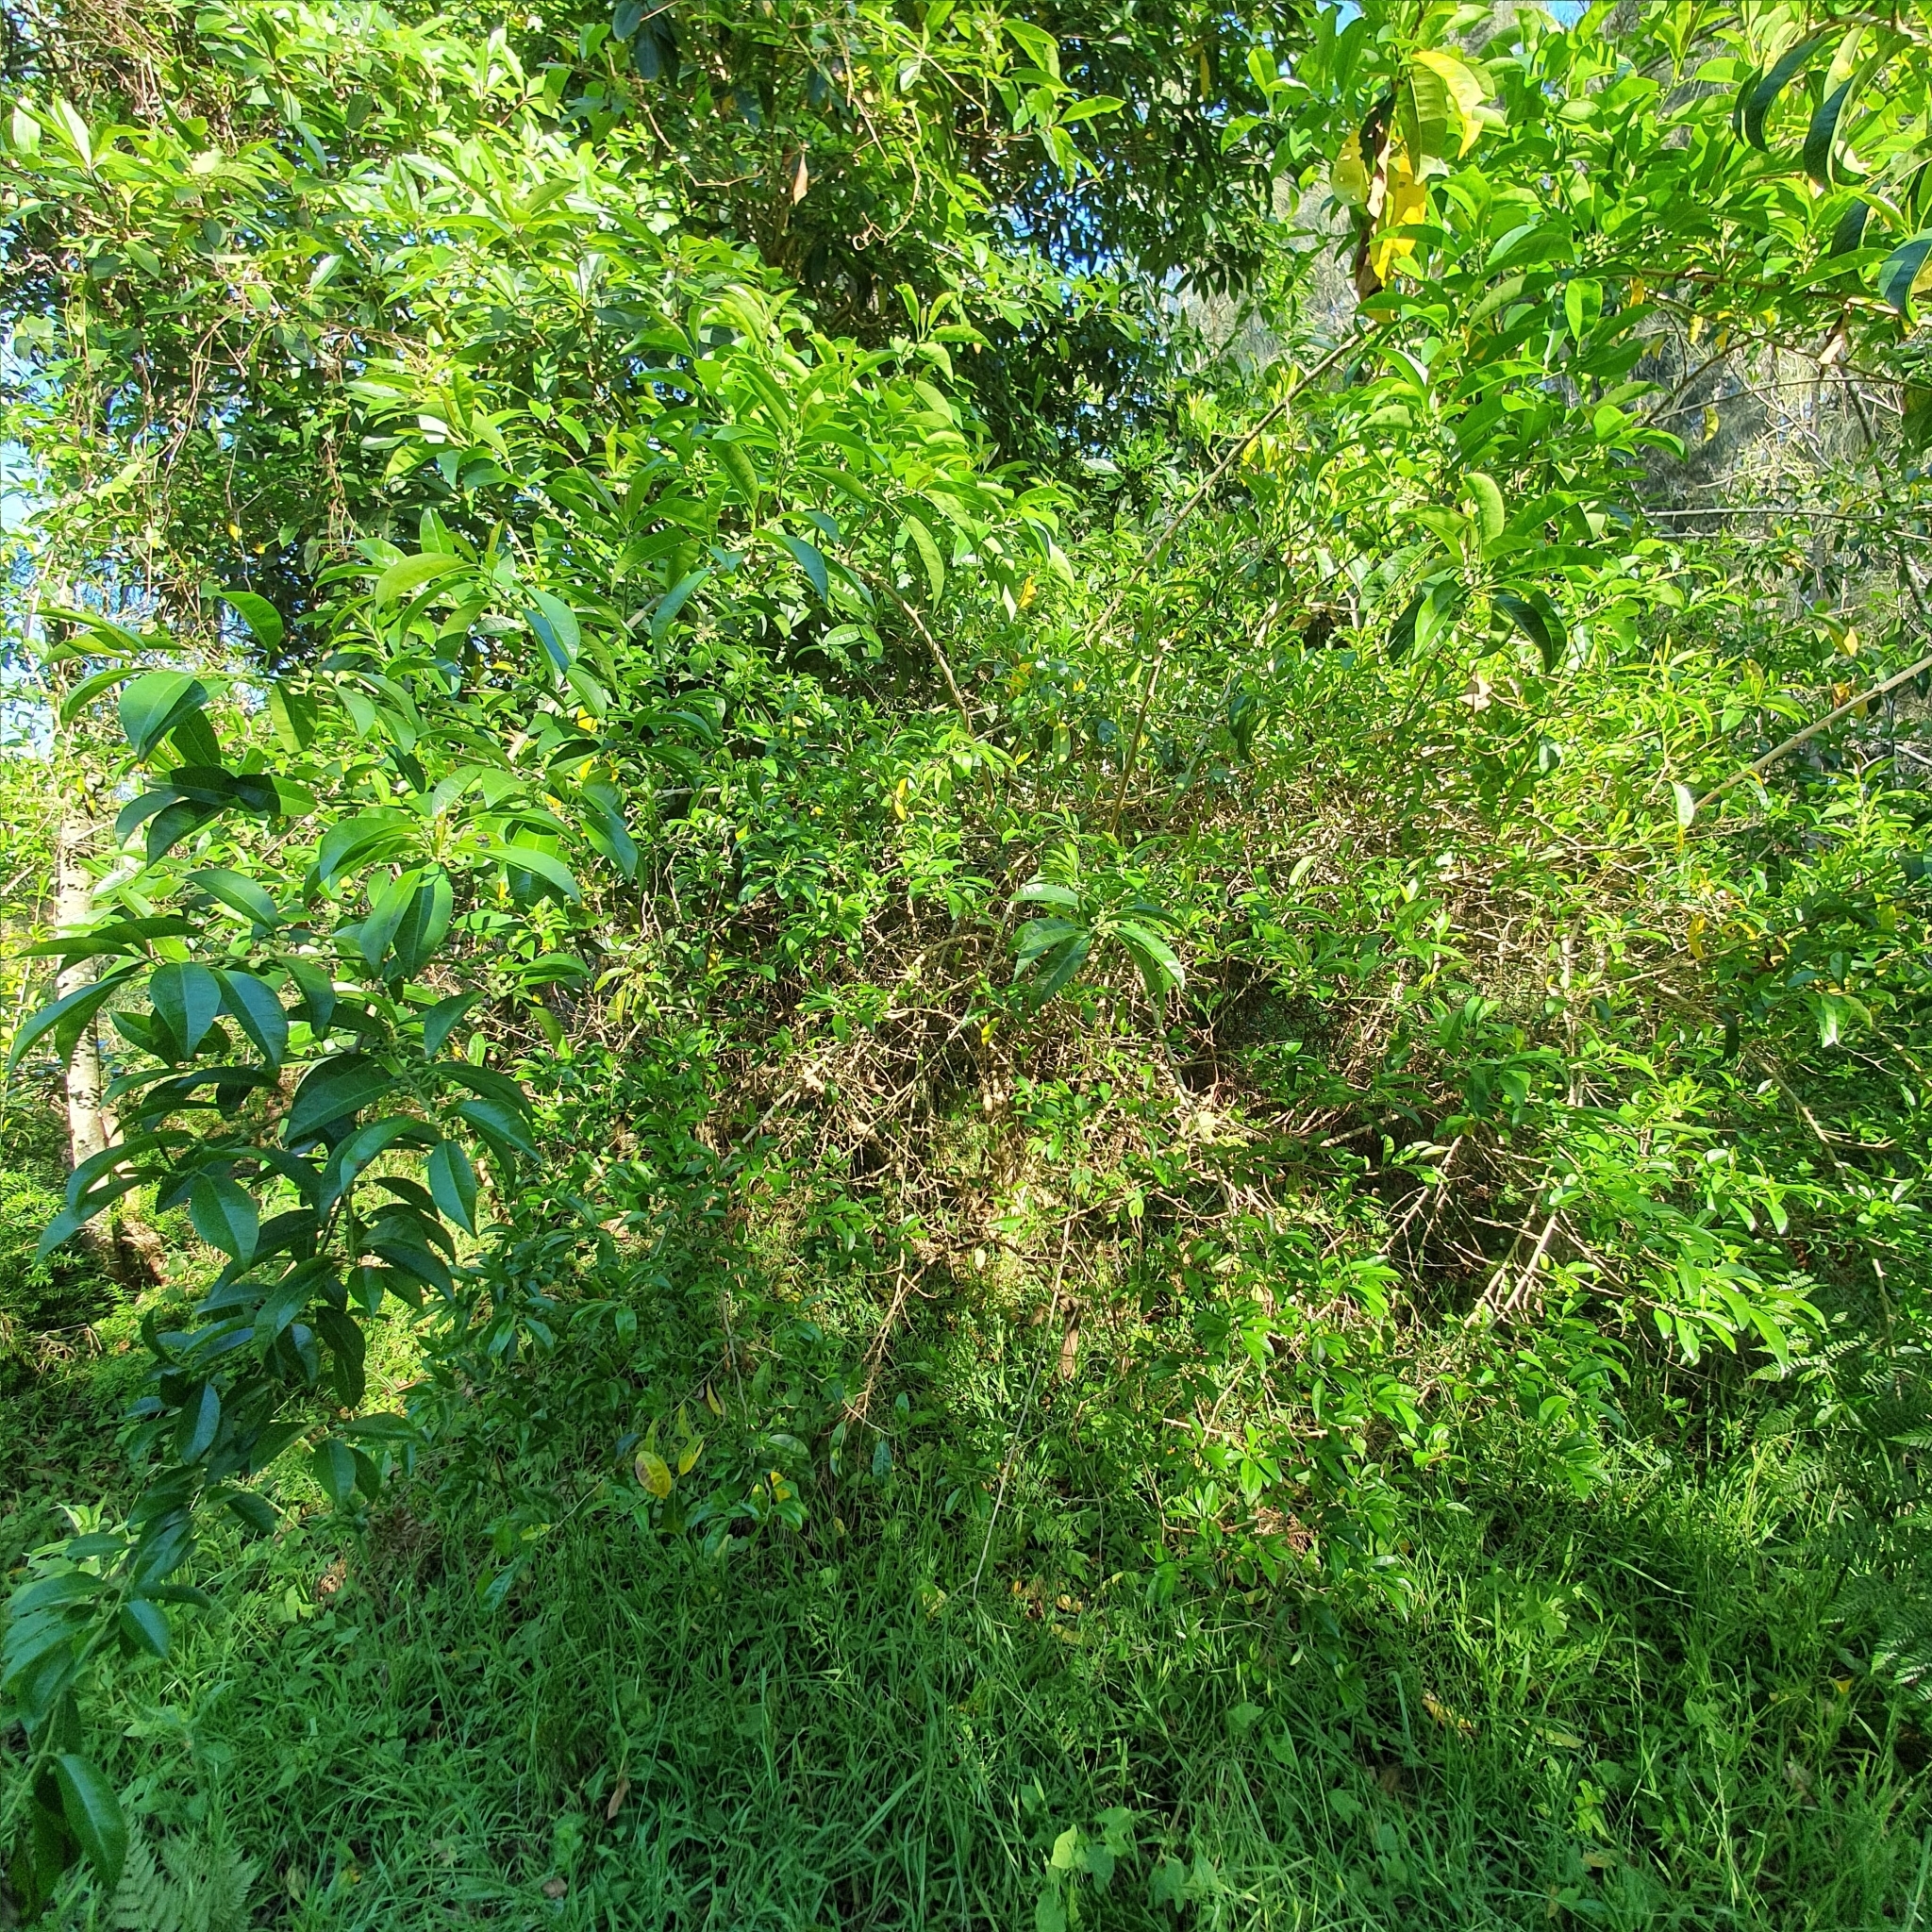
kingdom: Plantae
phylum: Tracheophyta
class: Magnoliopsida
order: Rosales
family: Moraceae
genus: Maclura
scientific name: Maclura cochinchinensis
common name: Cockspurthorn
